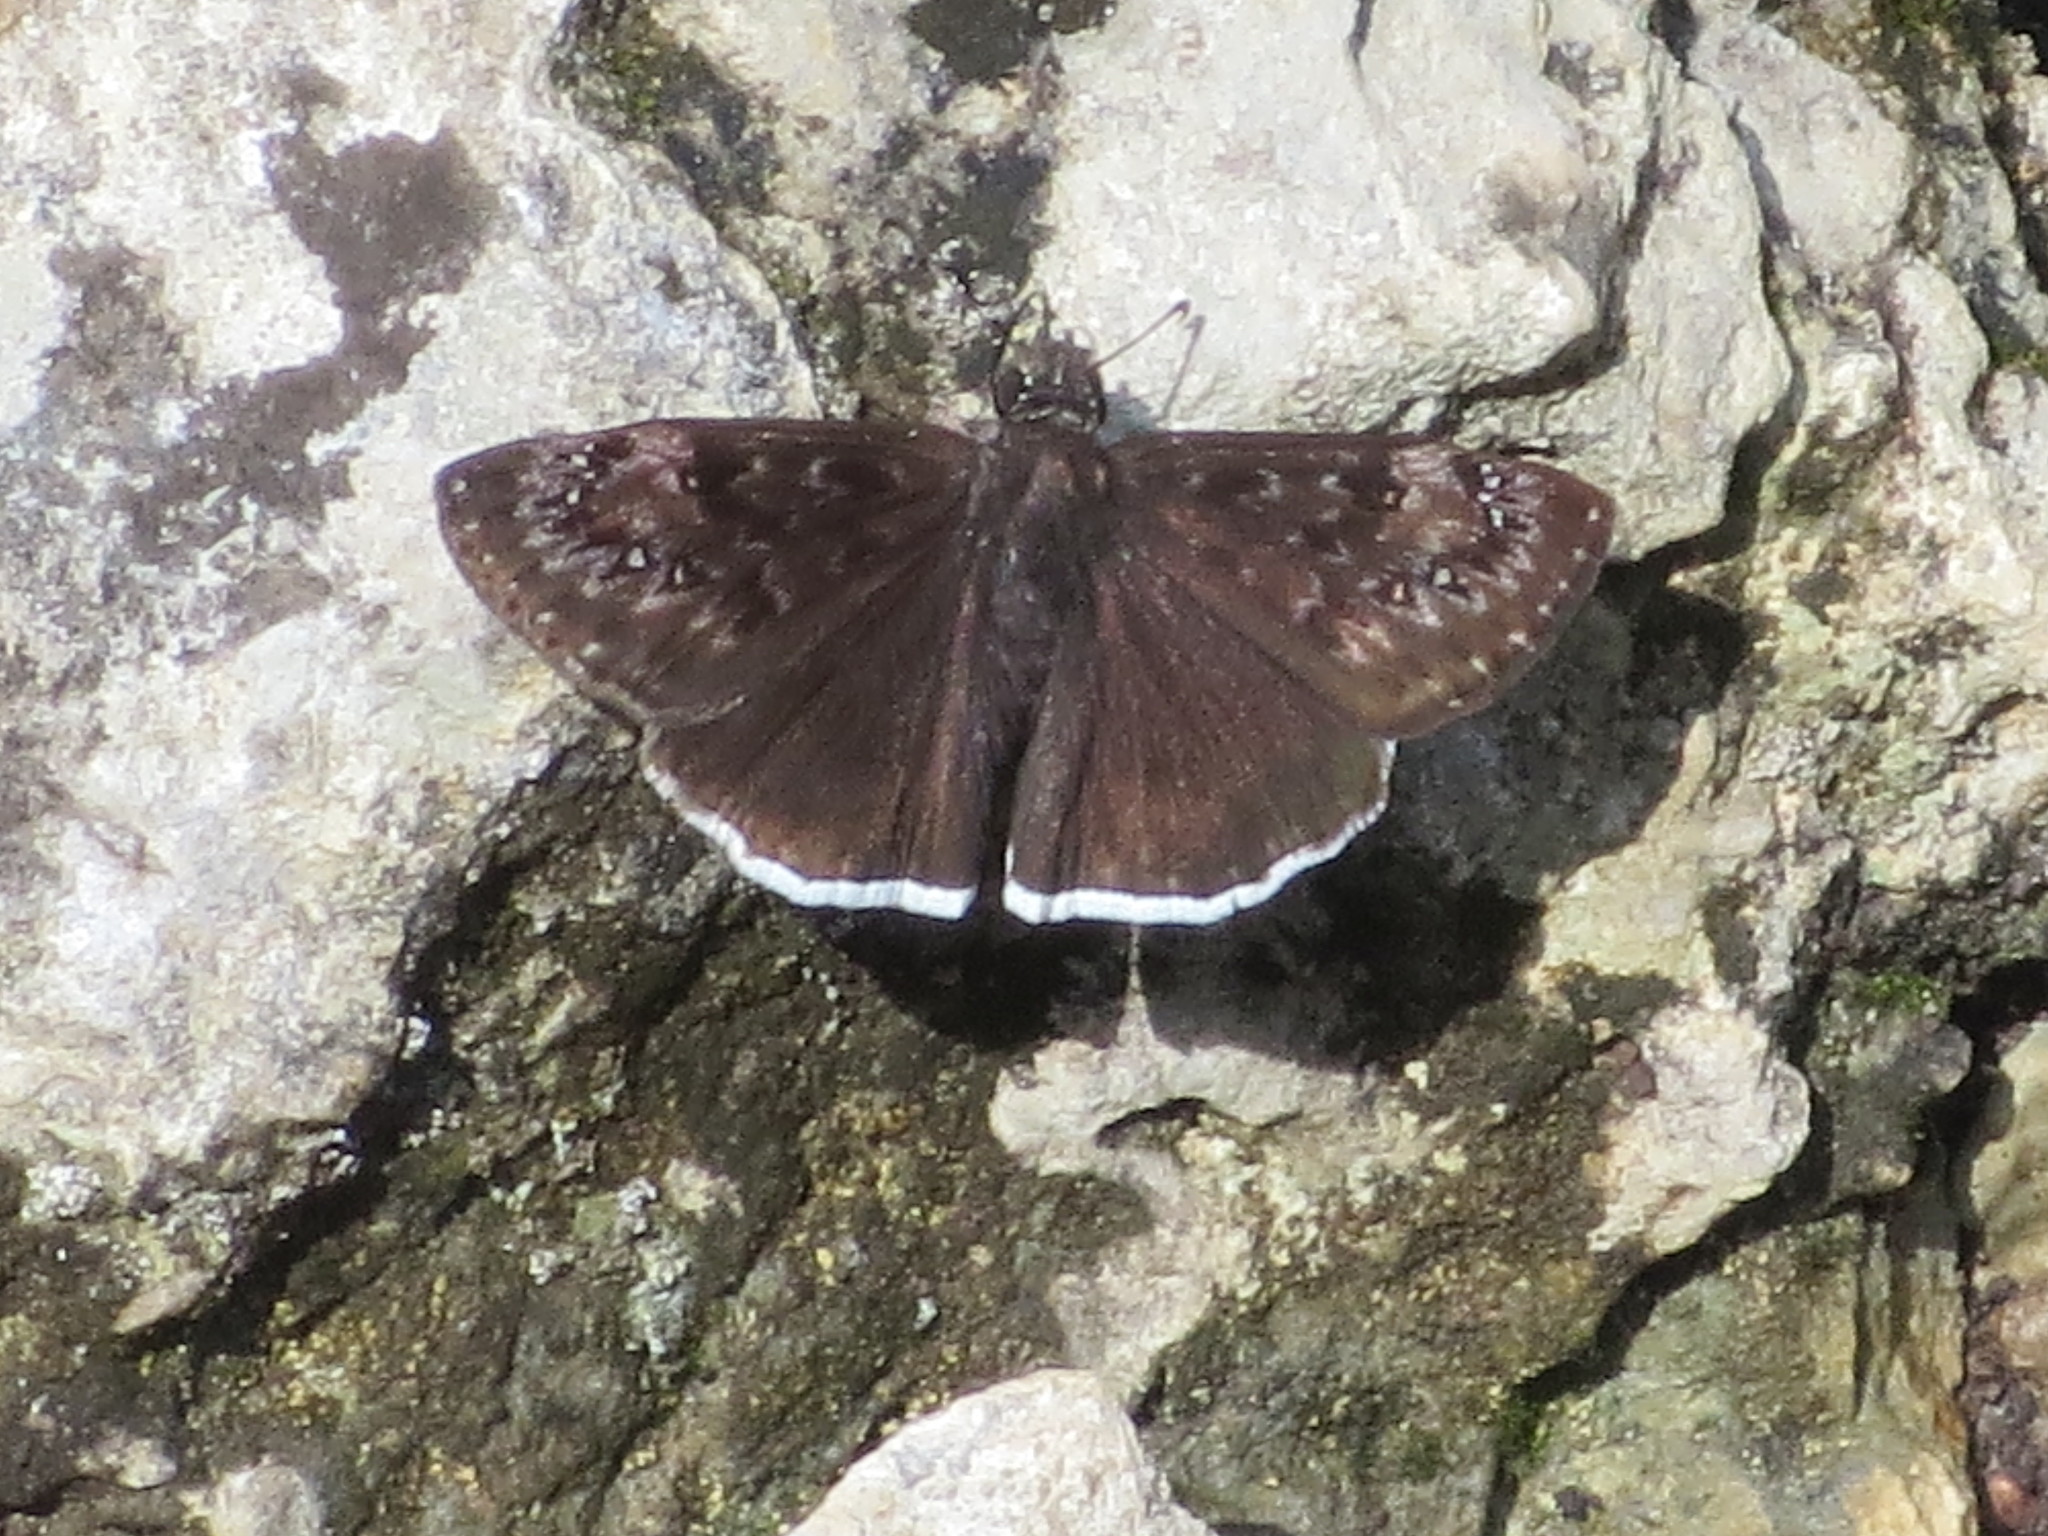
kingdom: Animalia
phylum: Arthropoda
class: Insecta
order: Lepidoptera
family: Hesperiidae
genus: Erynnis
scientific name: Erynnis tristis
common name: Mournful duskywing
